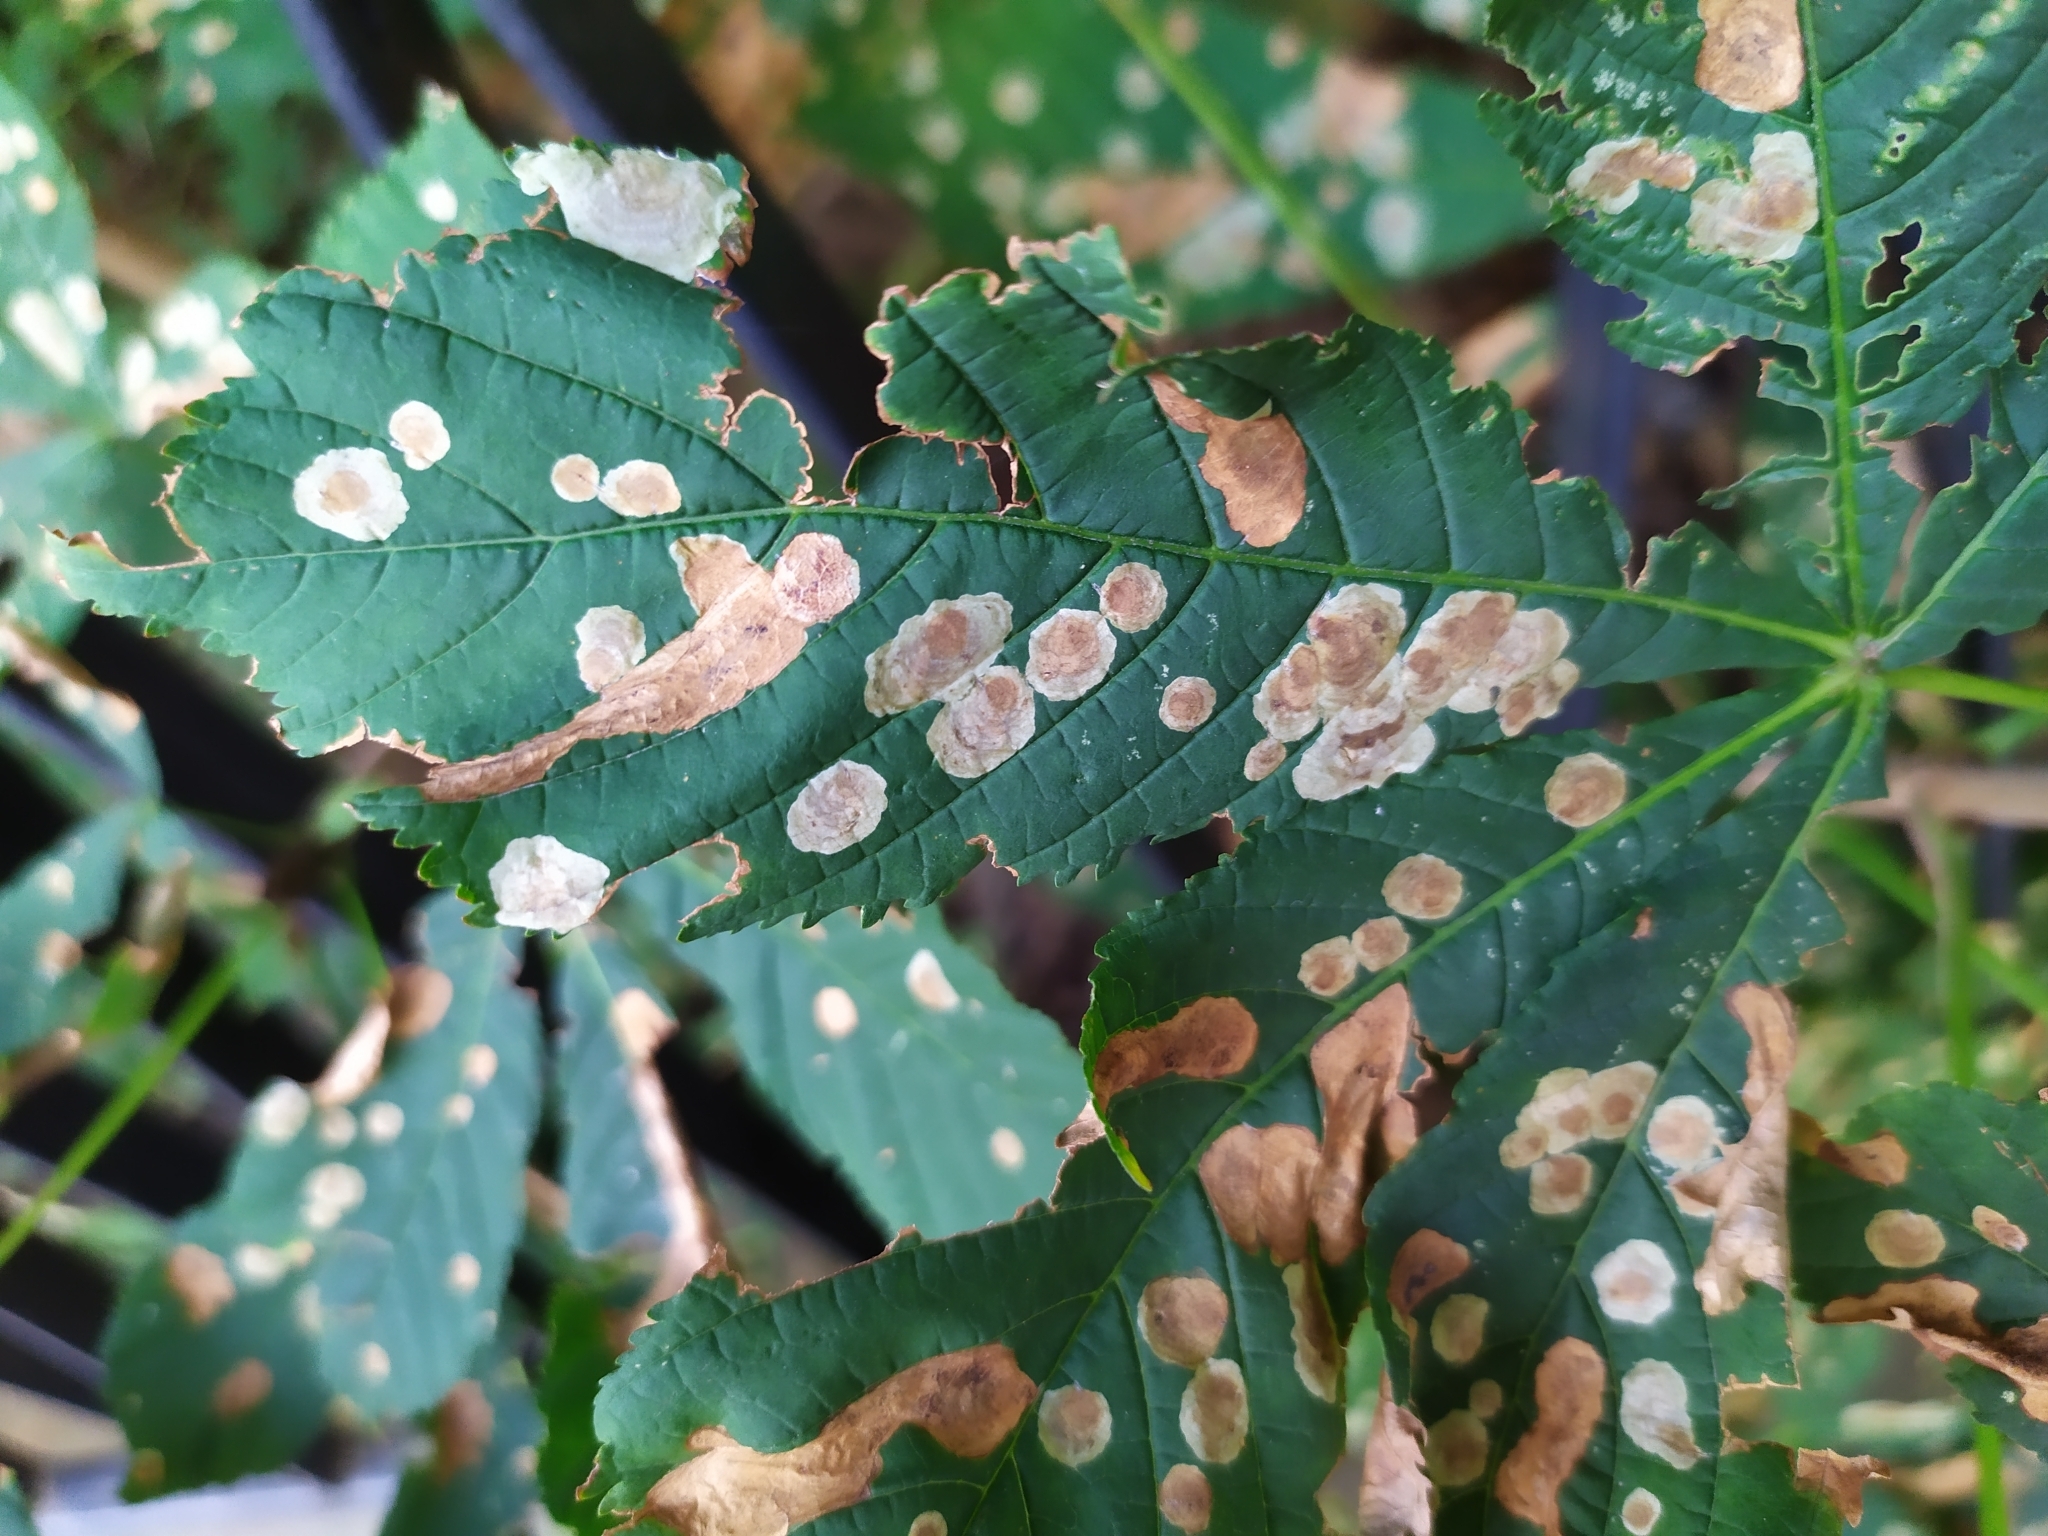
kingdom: Animalia
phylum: Arthropoda
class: Insecta
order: Lepidoptera
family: Gracillariidae
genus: Cameraria
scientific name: Cameraria ohridella
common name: Horse-chestnut leaf-miner
